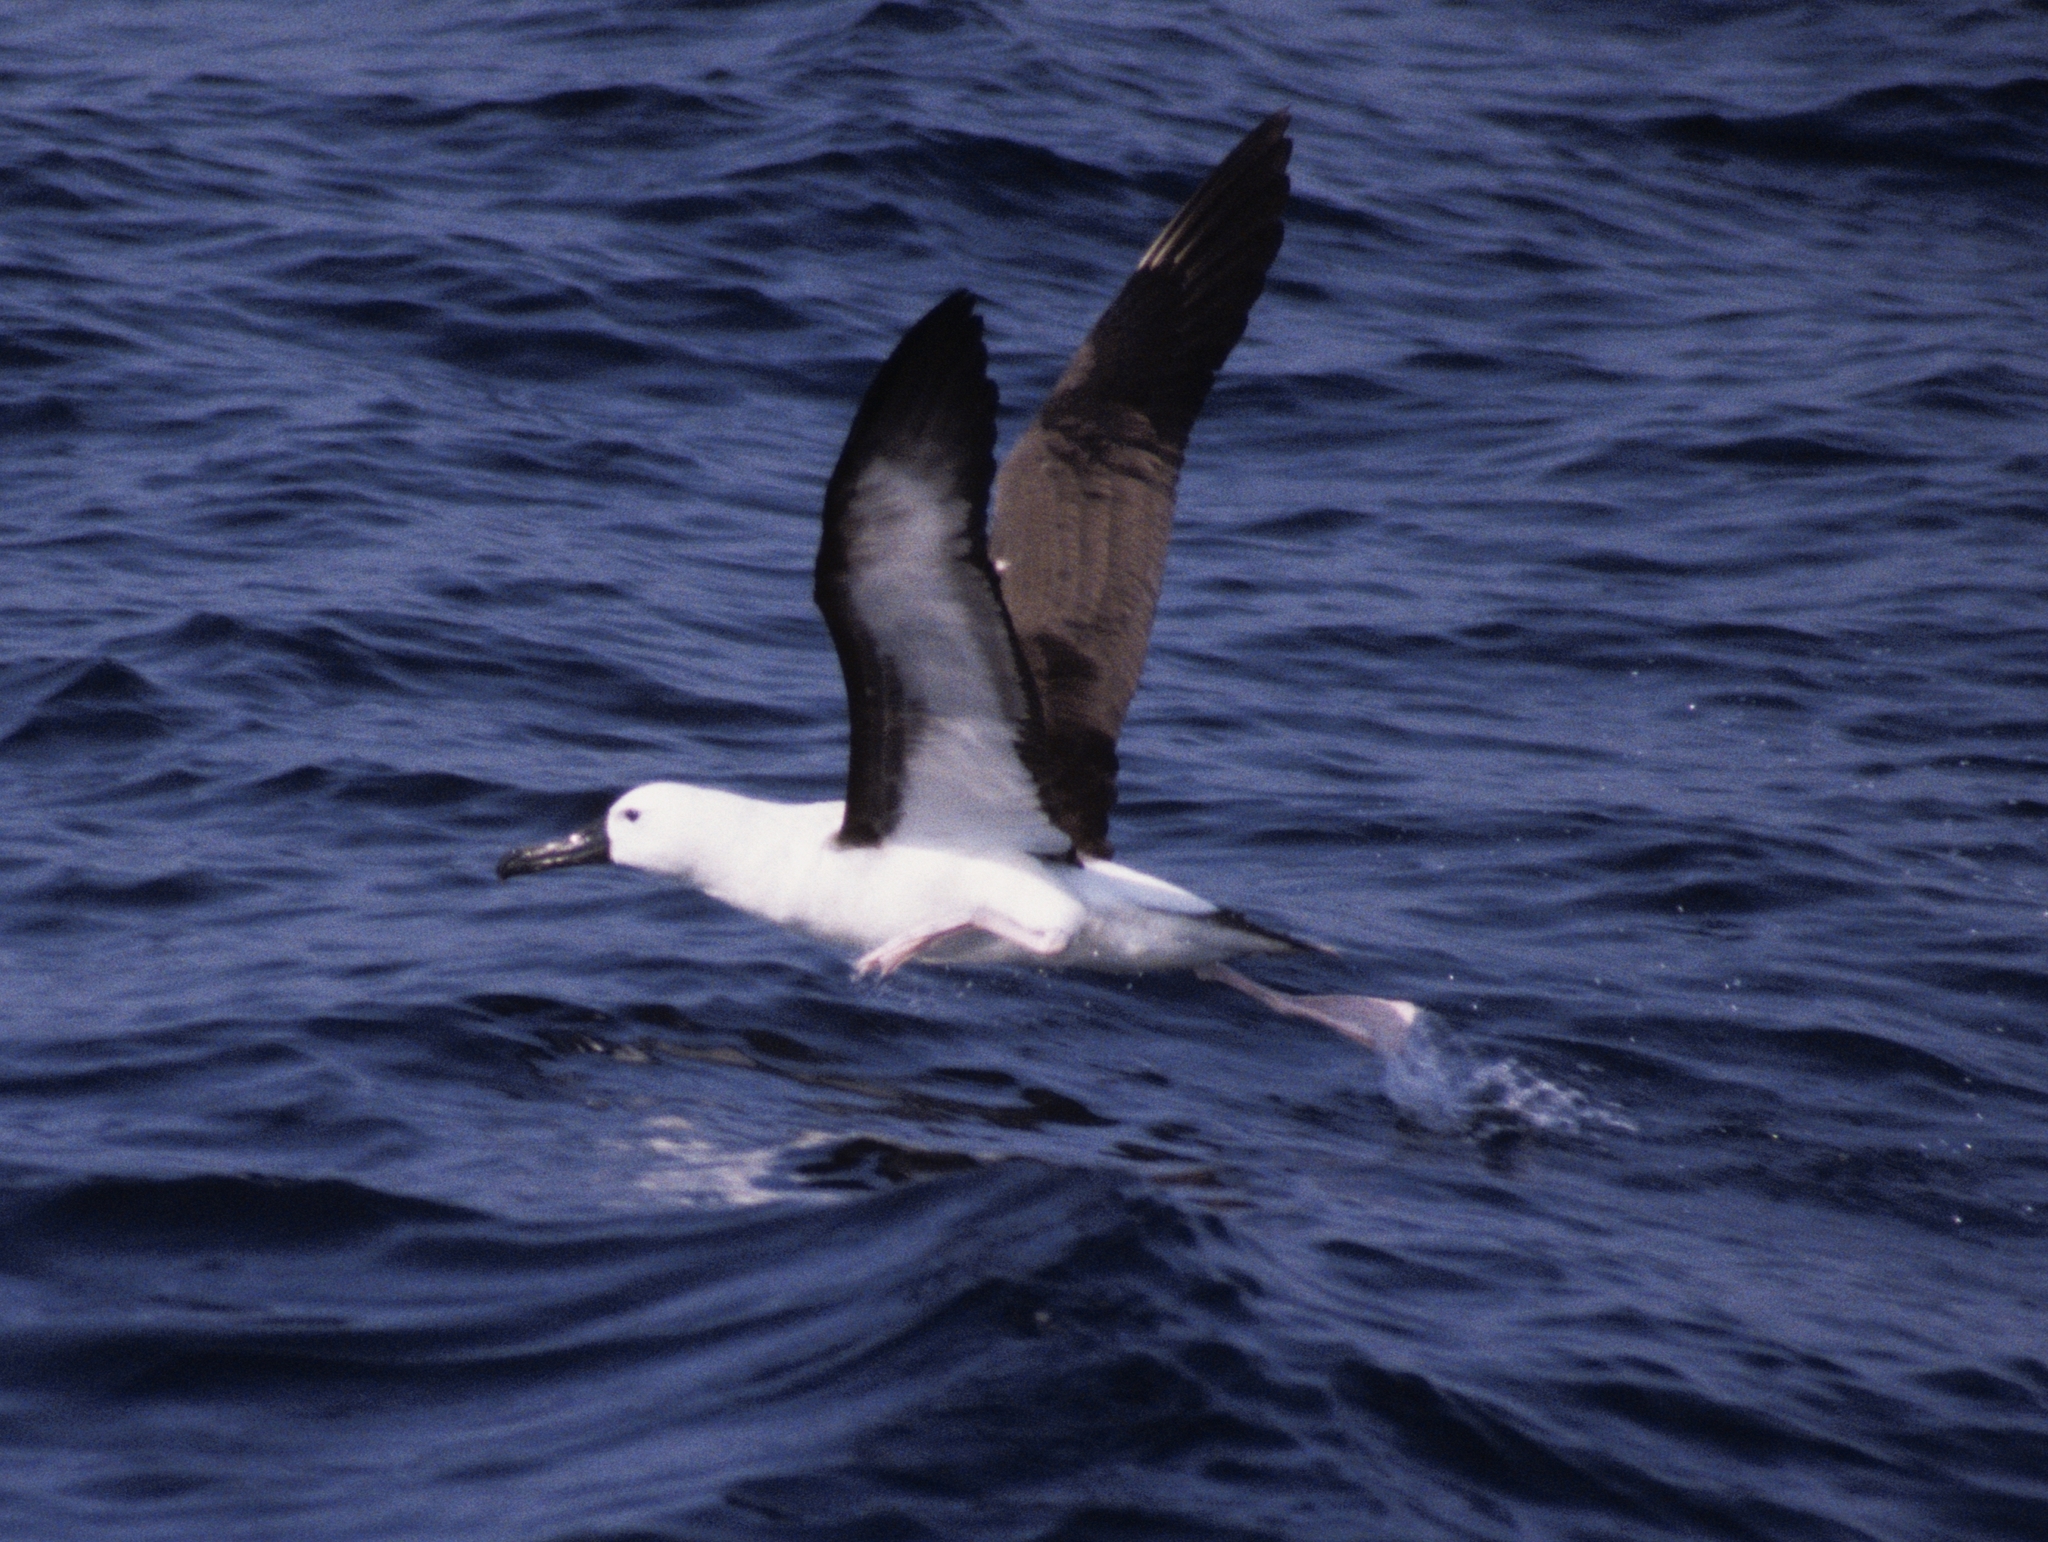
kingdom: Animalia
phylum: Chordata
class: Aves
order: Procellariiformes
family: Diomedeidae
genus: Thalassarche
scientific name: Thalassarche carteri
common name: Indian yellow-nosed albatross
